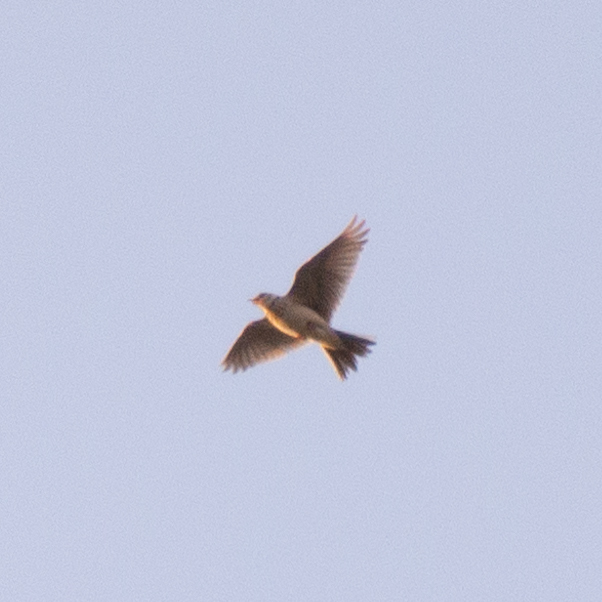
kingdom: Animalia
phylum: Chordata
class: Aves
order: Passeriformes
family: Alaudidae
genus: Alauda
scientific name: Alauda arvensis
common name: Eurasian skylark
